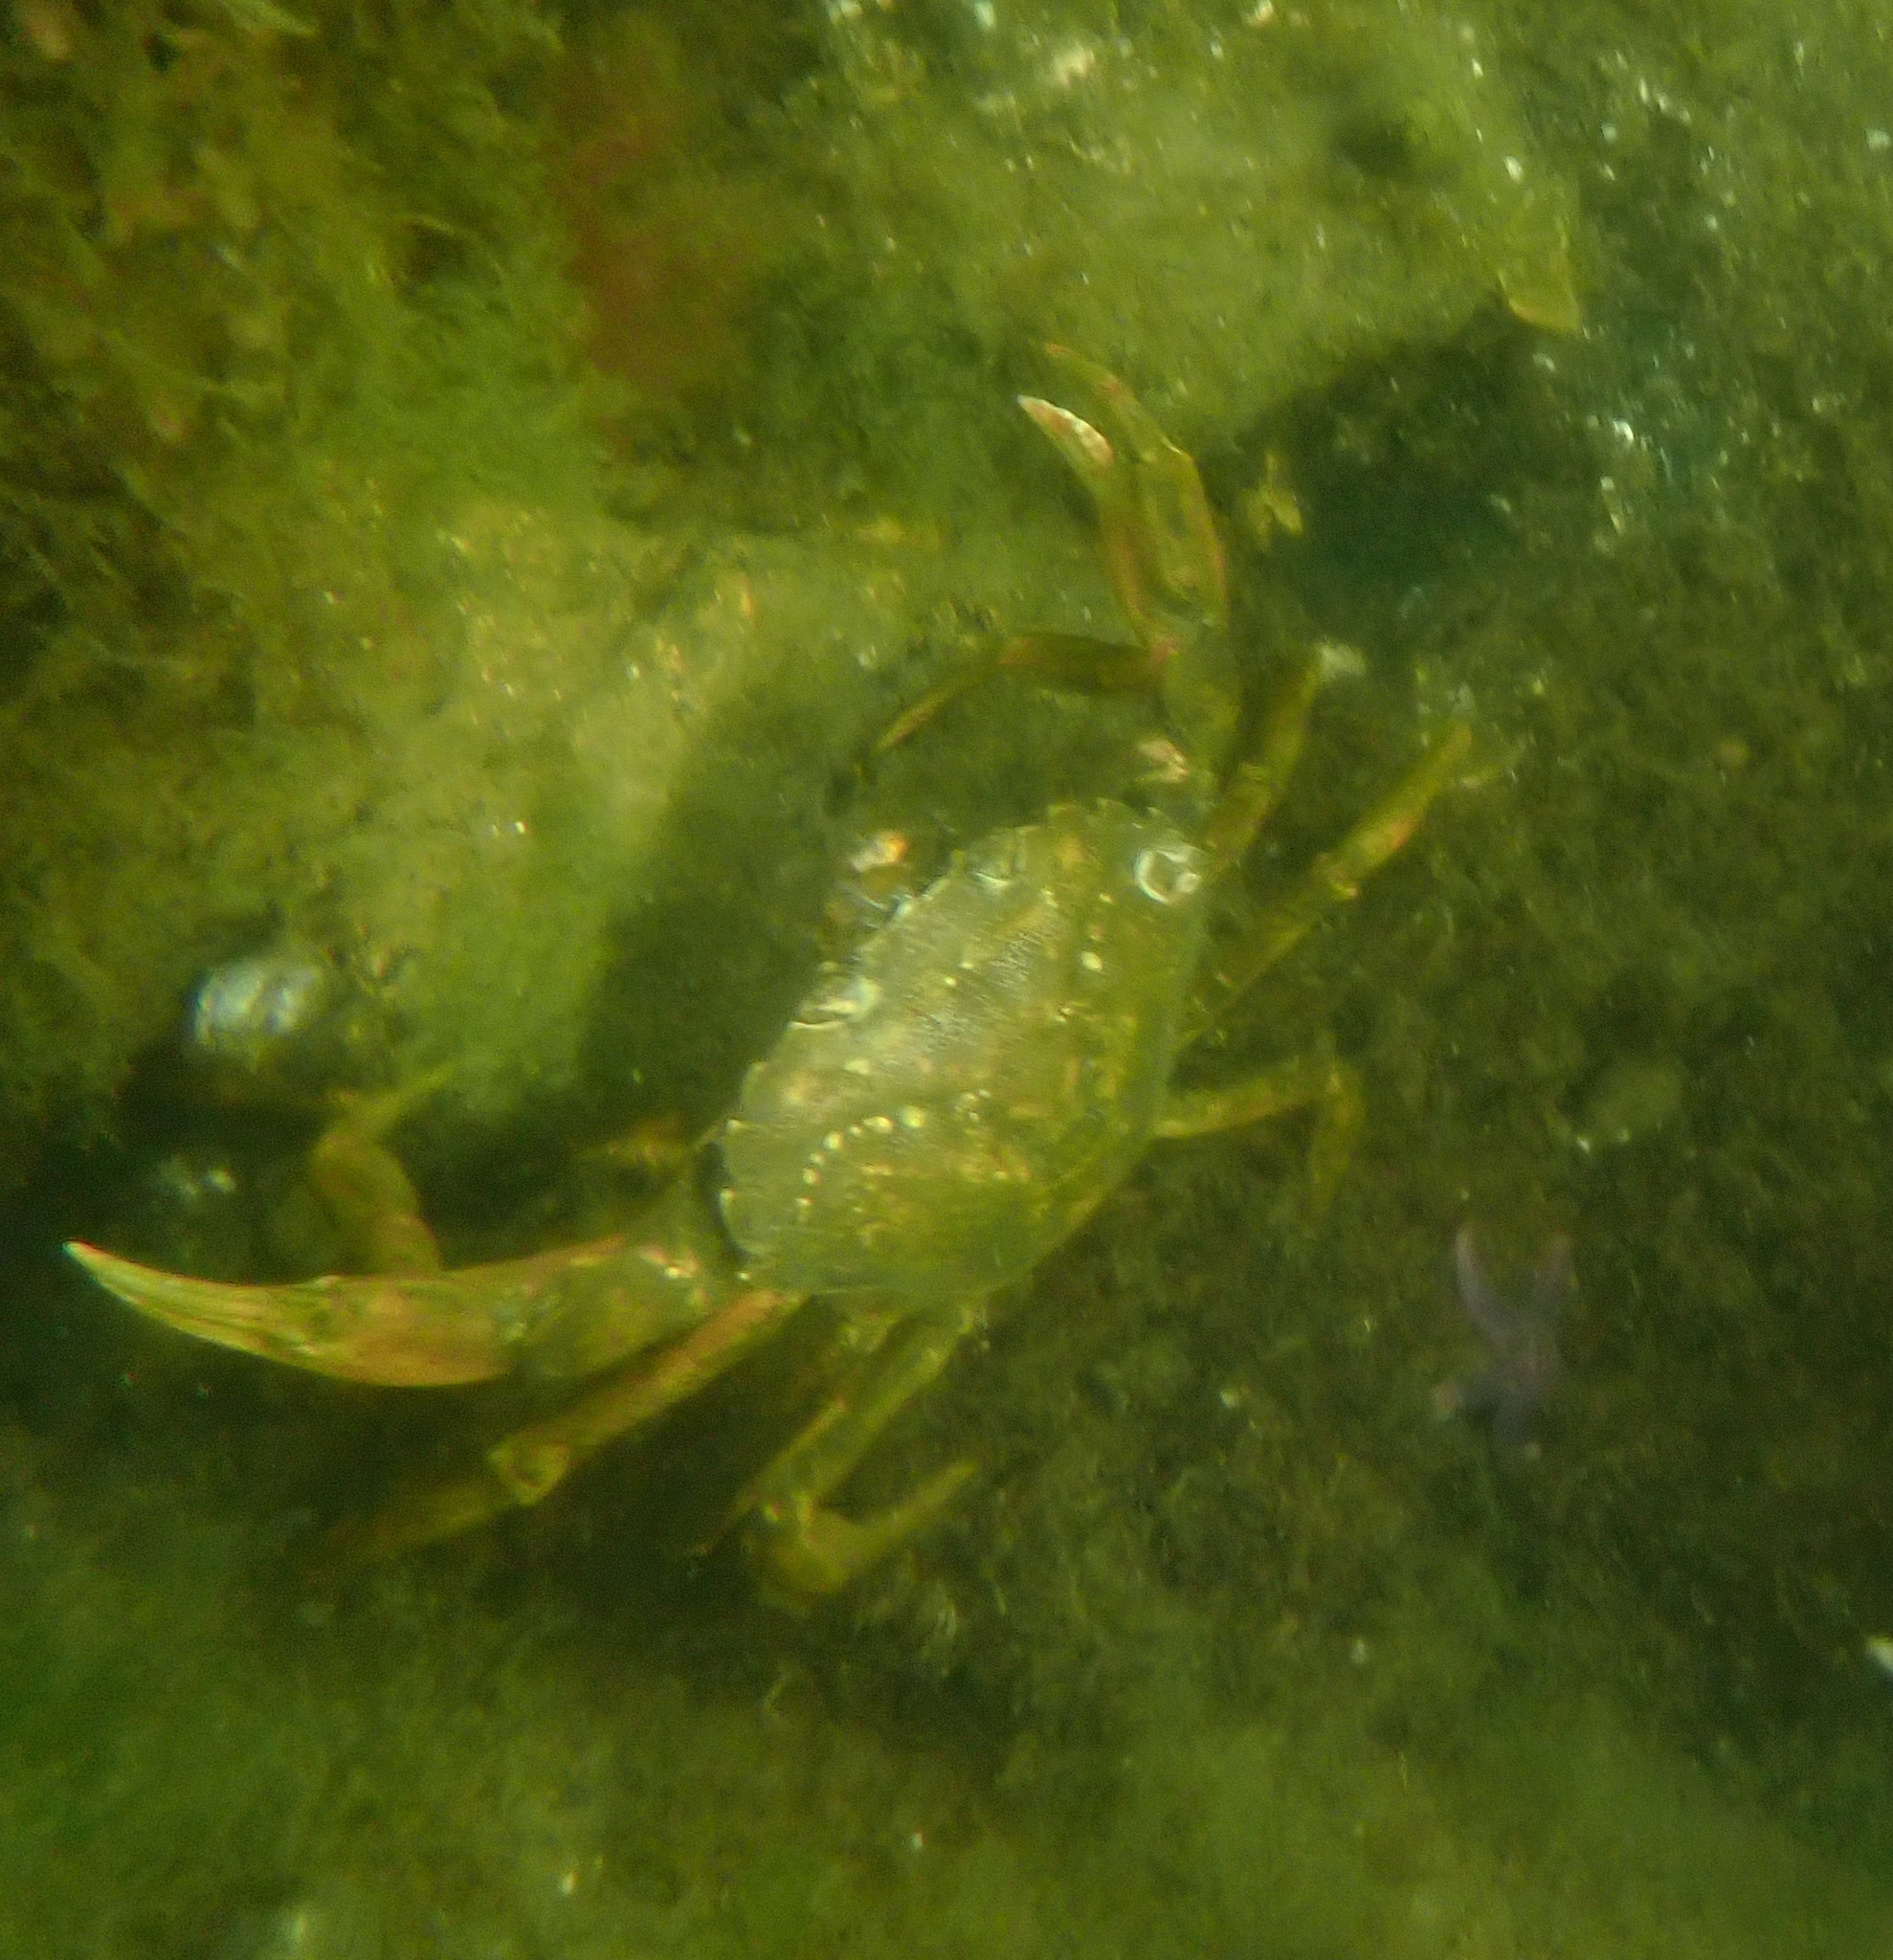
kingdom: Animalia
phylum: Arthropoda
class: Malacostraca
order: Decapoda
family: Carcinidae
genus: Carcinus
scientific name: Carcinus maenas
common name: European green crab
